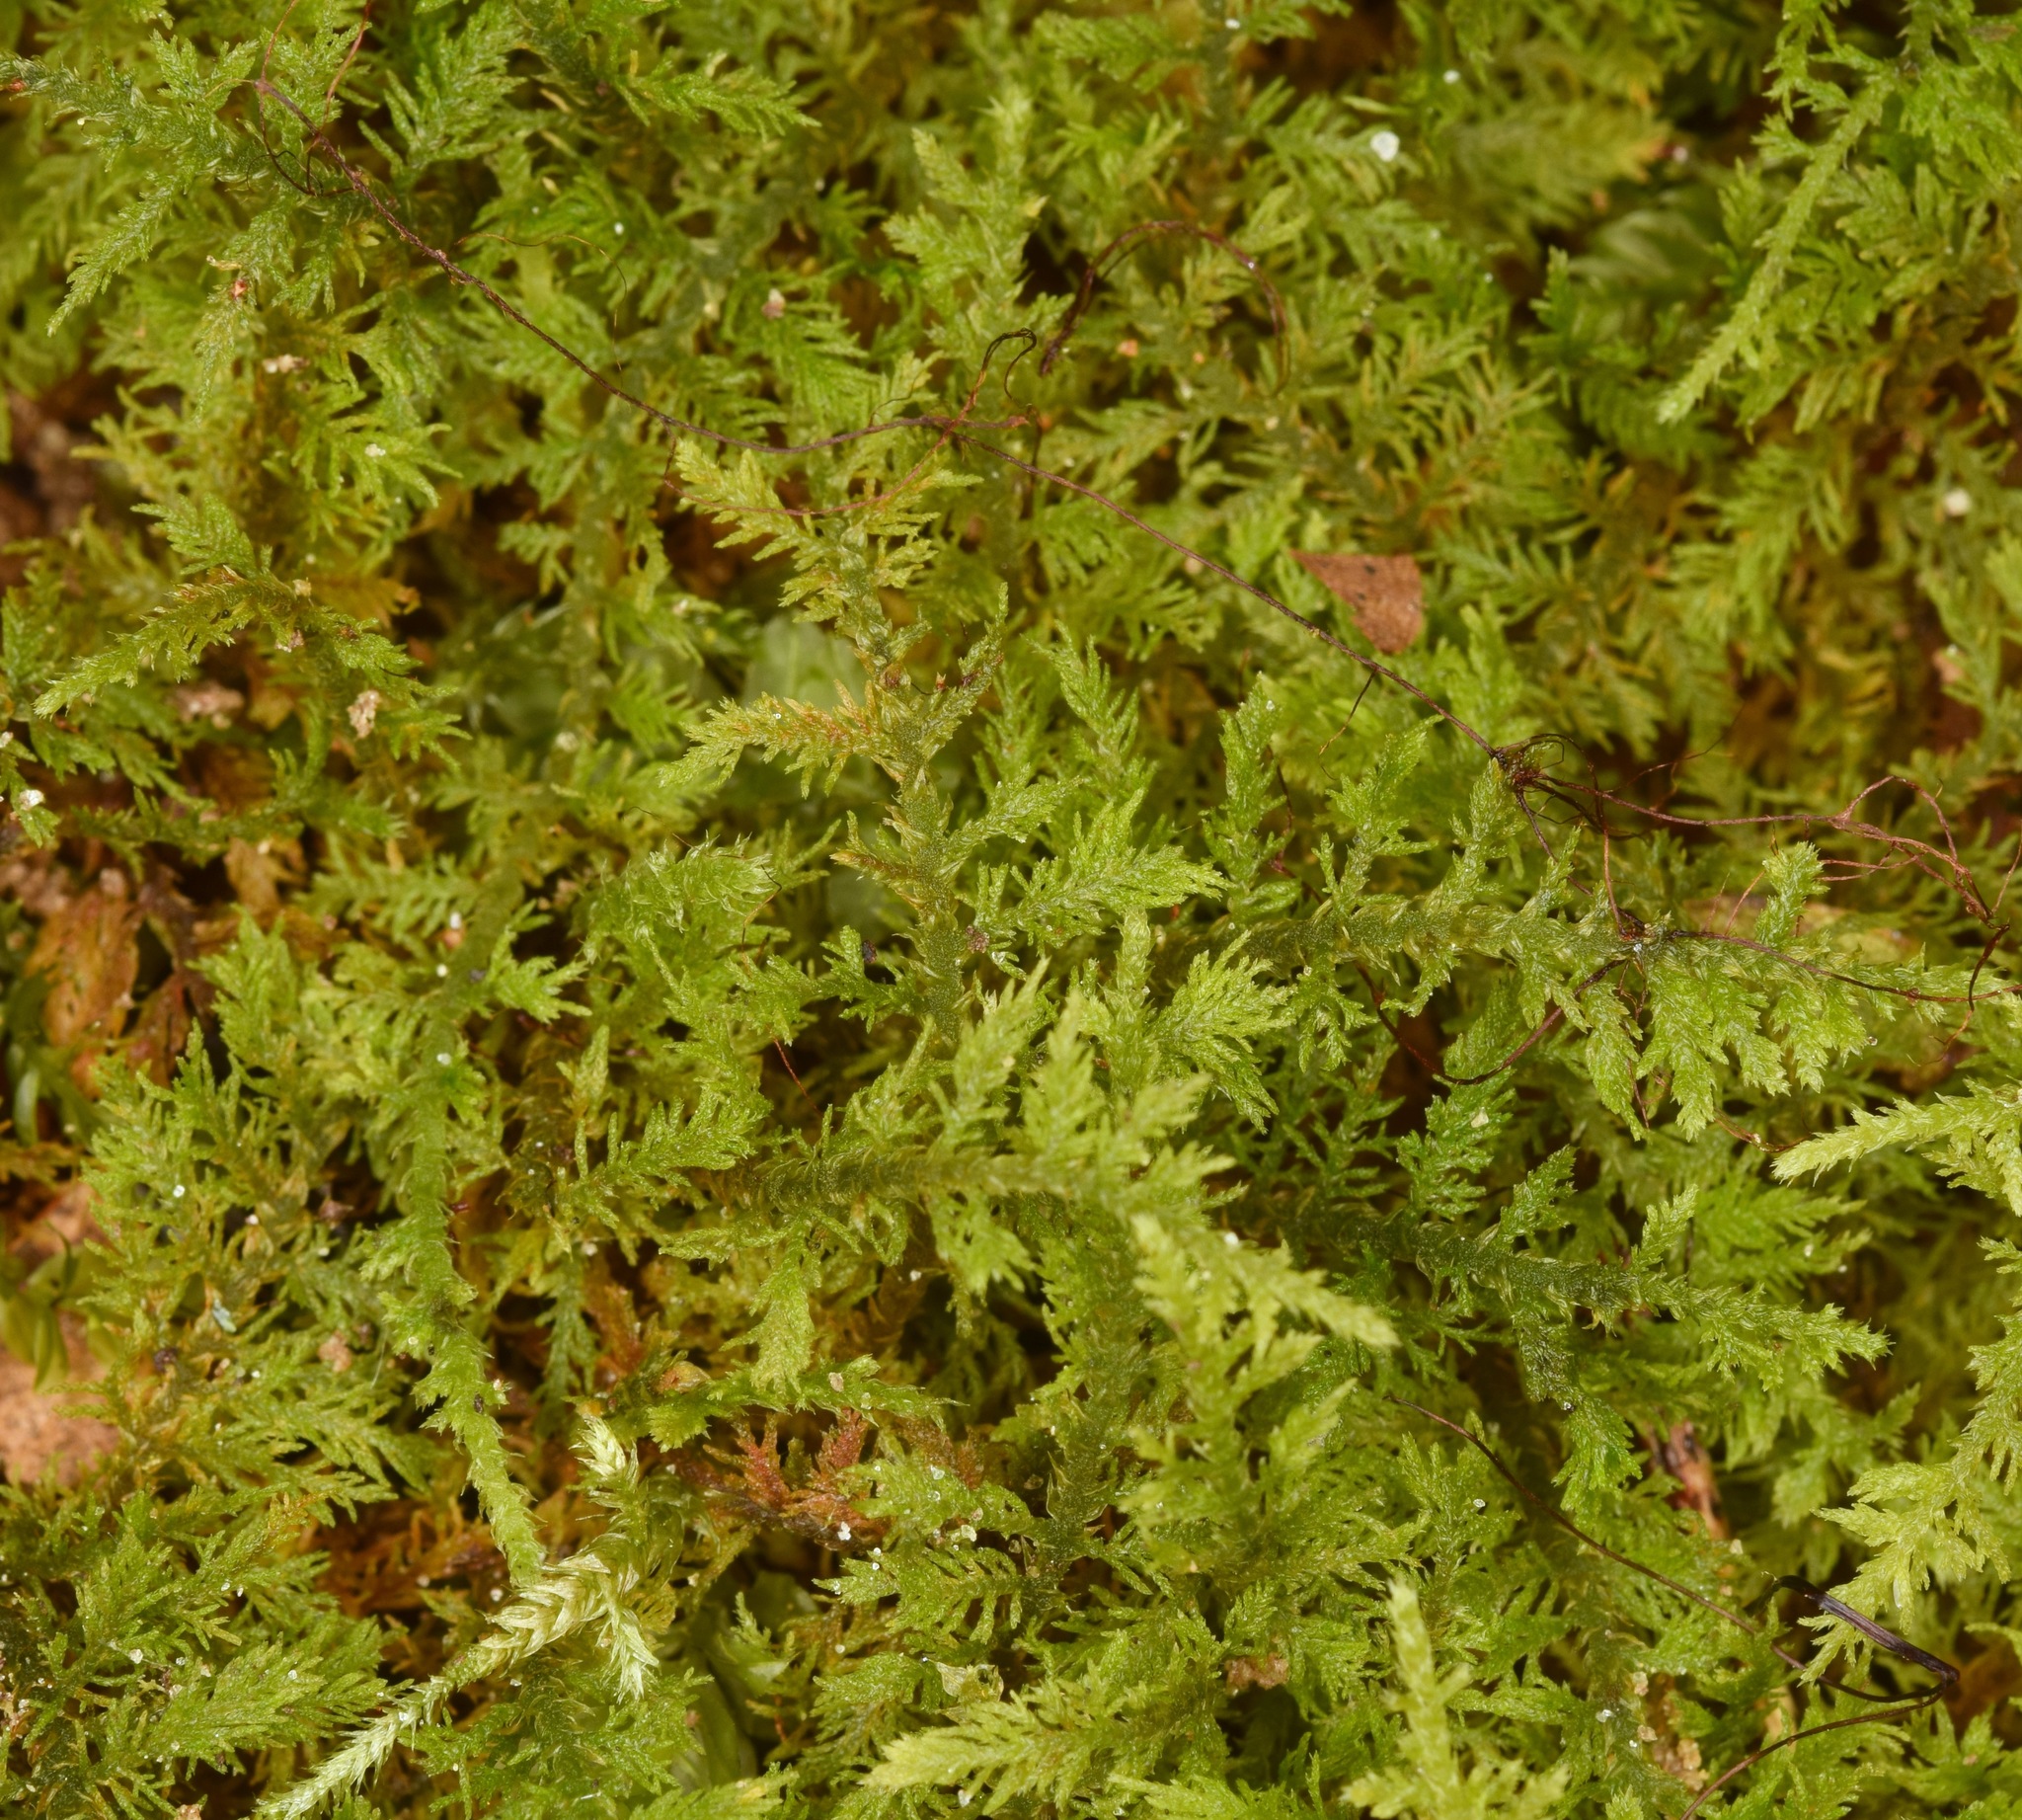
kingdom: Plantae
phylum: Bryophyta
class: Bryopsida
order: Hypnales
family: Thuidiaceae
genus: Thuidium
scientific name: Thuidium delicatulum
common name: Delicate fern moss
